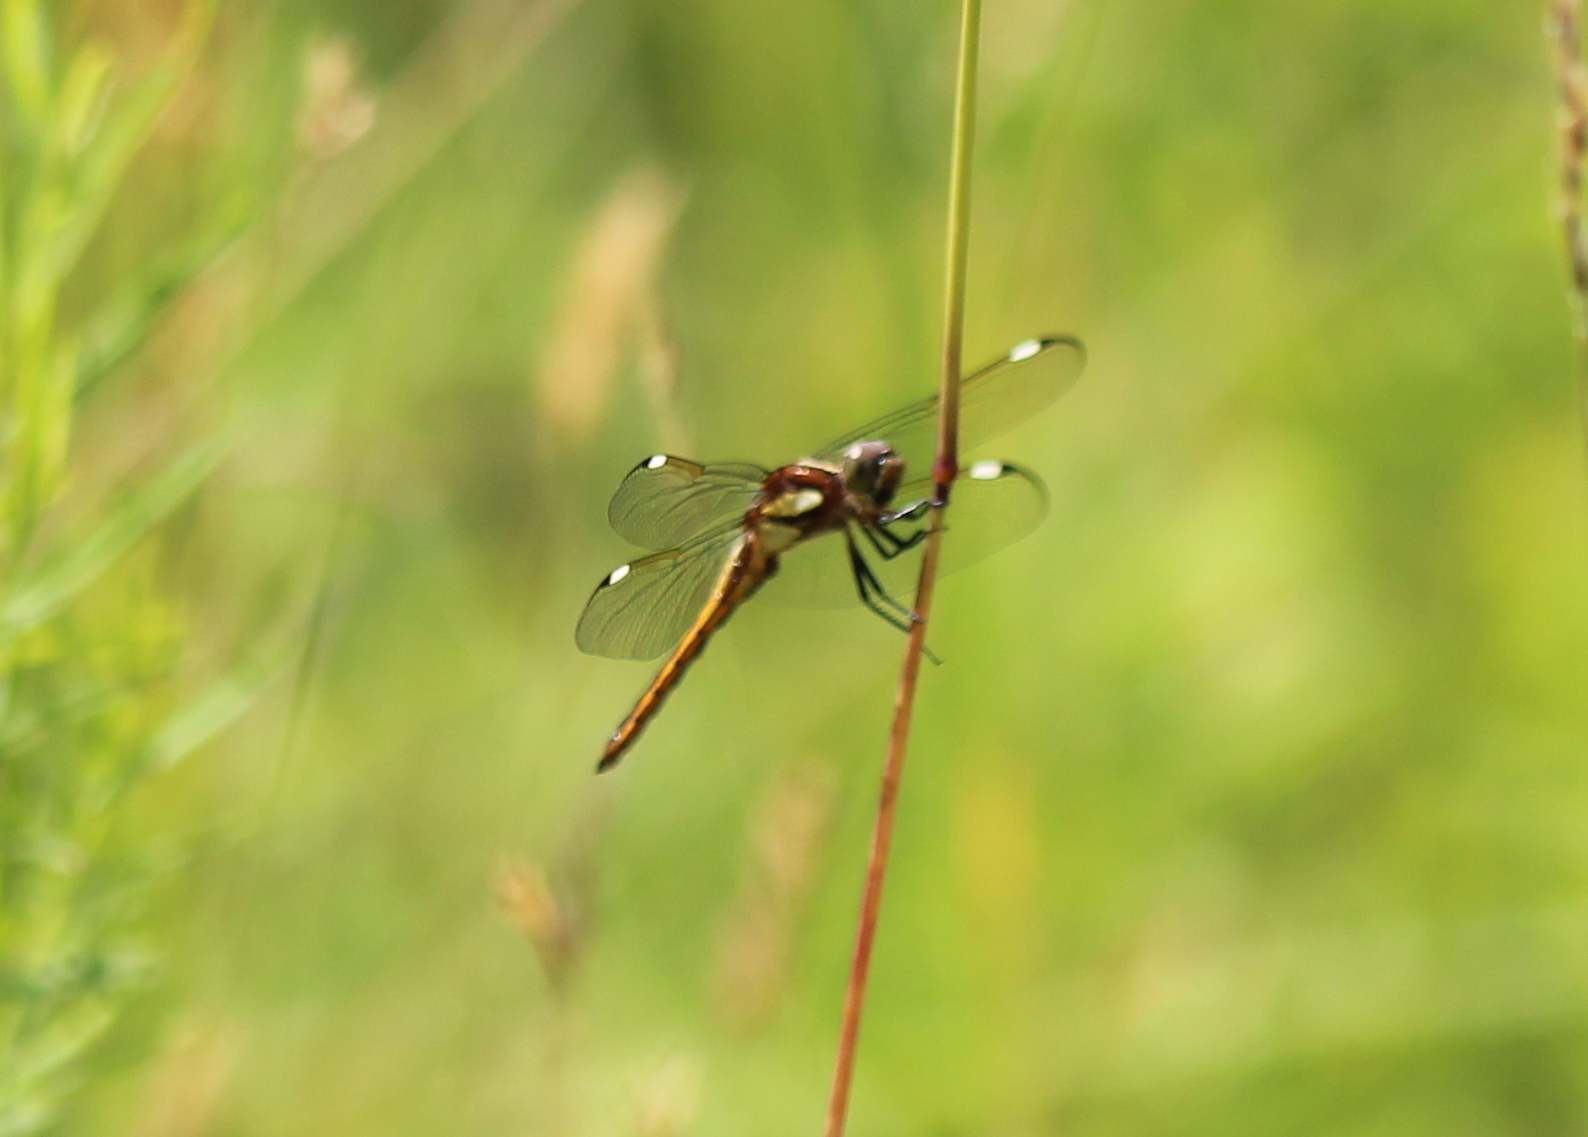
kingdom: Animalia
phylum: Arthropoda
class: Insecta
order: Odonata
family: Libellulidae
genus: Libellula
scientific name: Libellula cyanea
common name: Spangled skimmer
